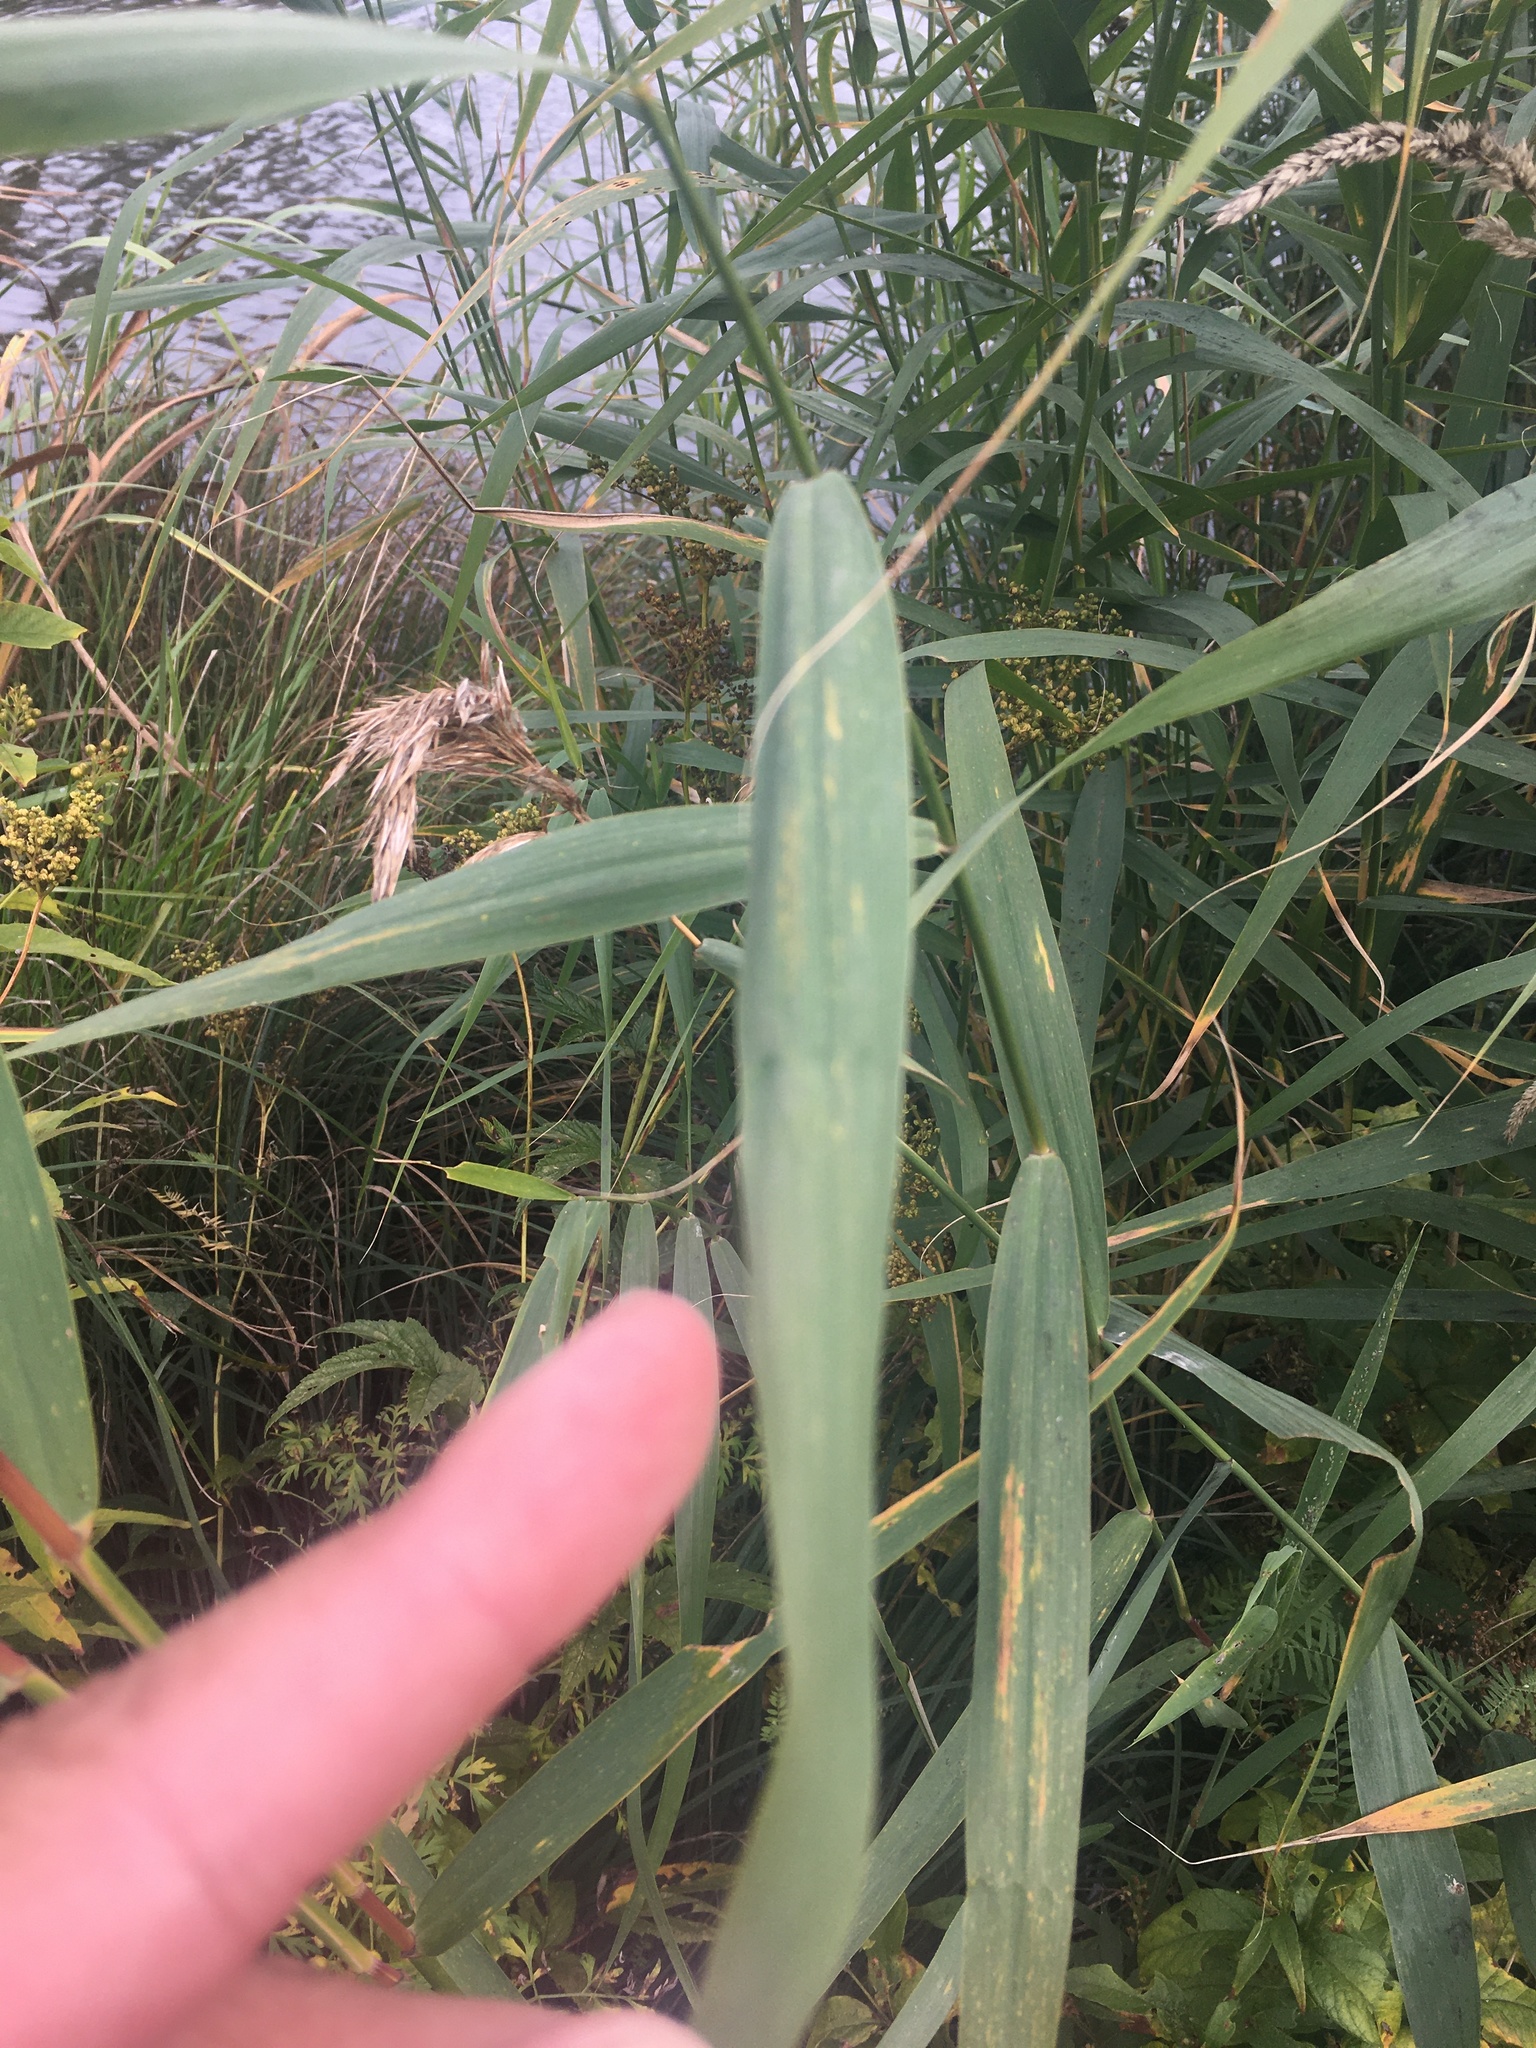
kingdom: Plantae
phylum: Tracheophyta
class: Liliopsida
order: Poales
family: Poaceae
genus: Phragmites
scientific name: Phragmites australis
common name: Common reed
